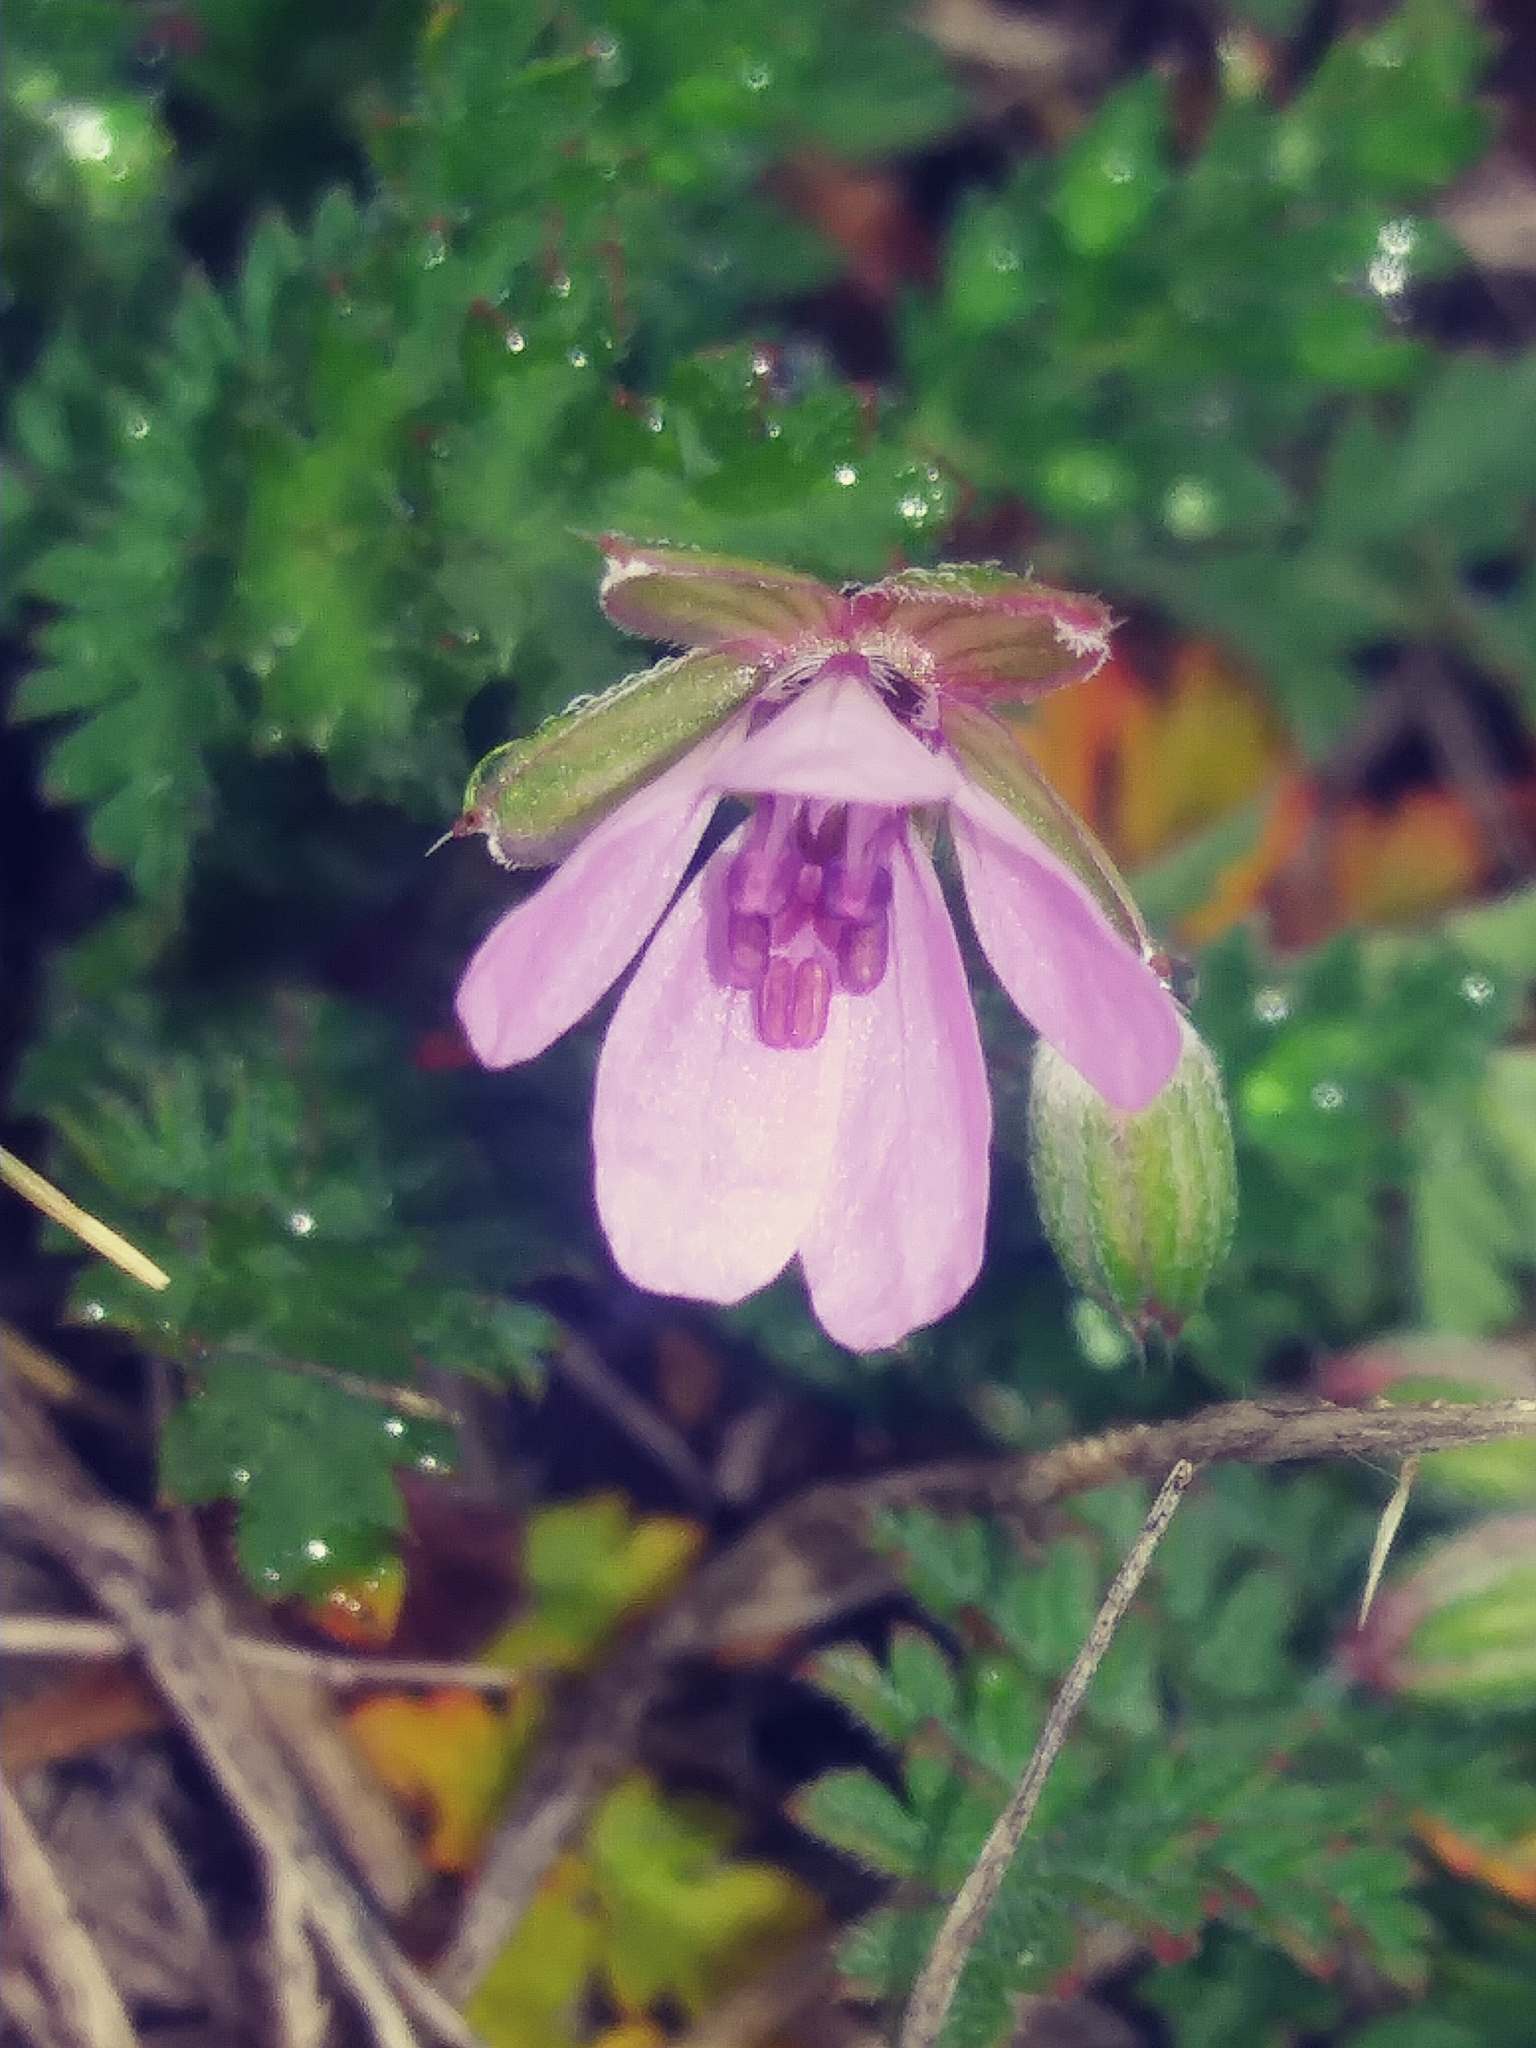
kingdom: Plantae
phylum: Tracheophyta
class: Magnoliopsida
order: Geraniales
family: Geraniaceae
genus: Erodium
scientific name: Erodium cicutarium
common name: Common stork's-bill
